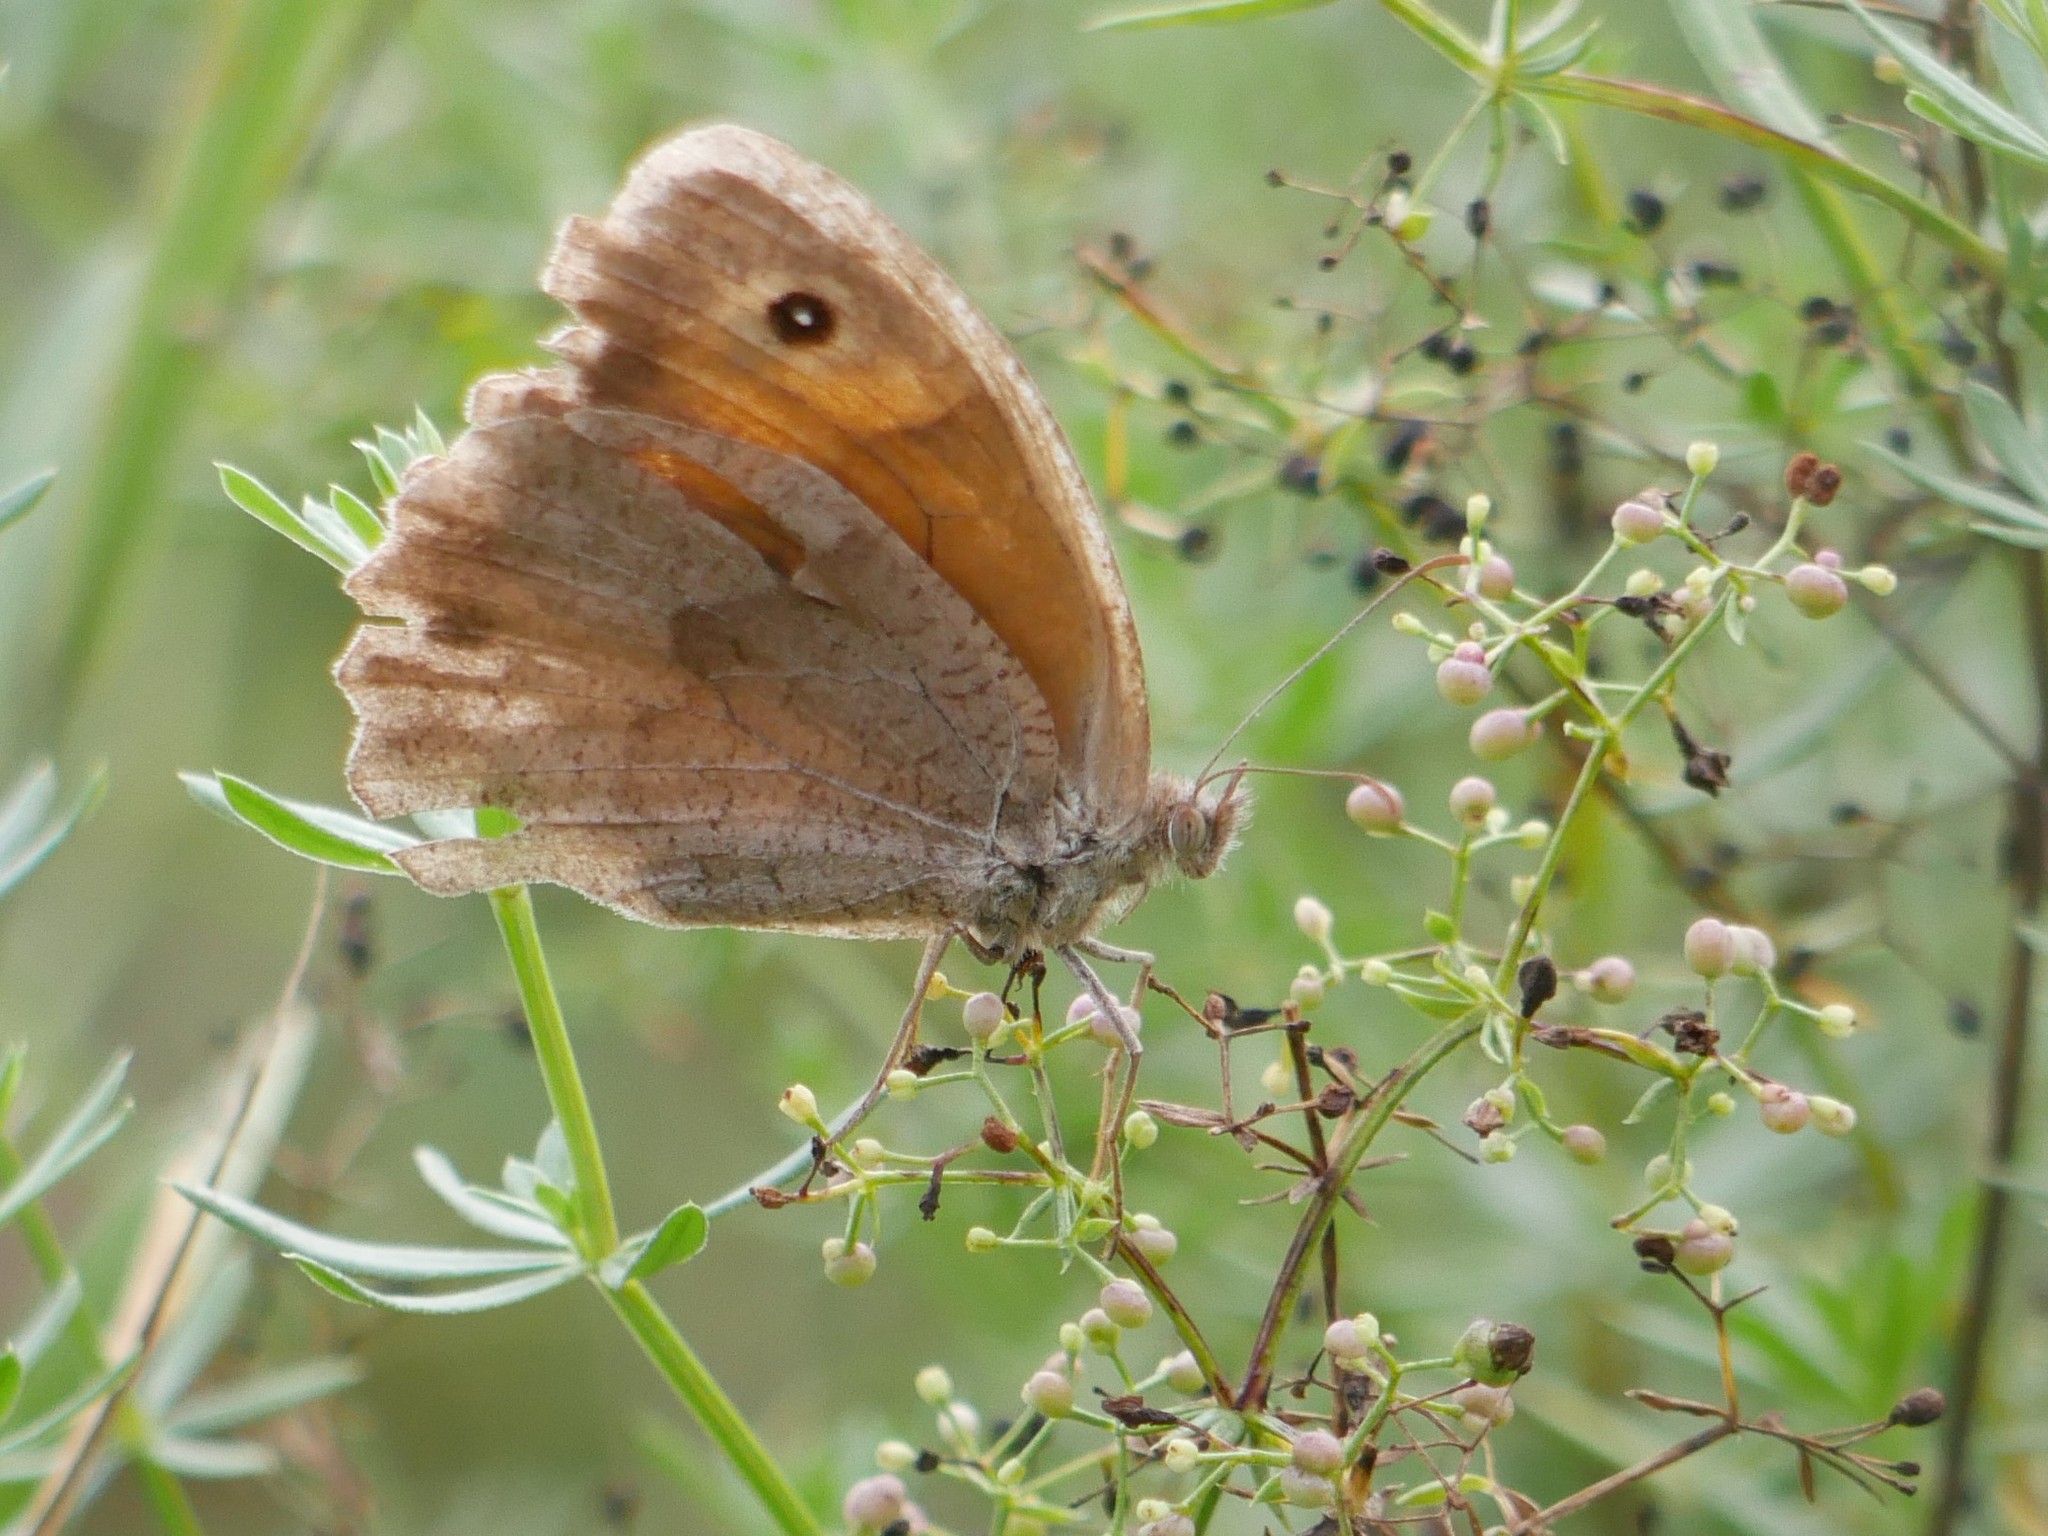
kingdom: Animalia
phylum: Arthropoda
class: Insecta
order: Lepidoptera
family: Nymphalidae
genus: Maniola
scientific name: Maniola jurtina
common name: Meadow brown
